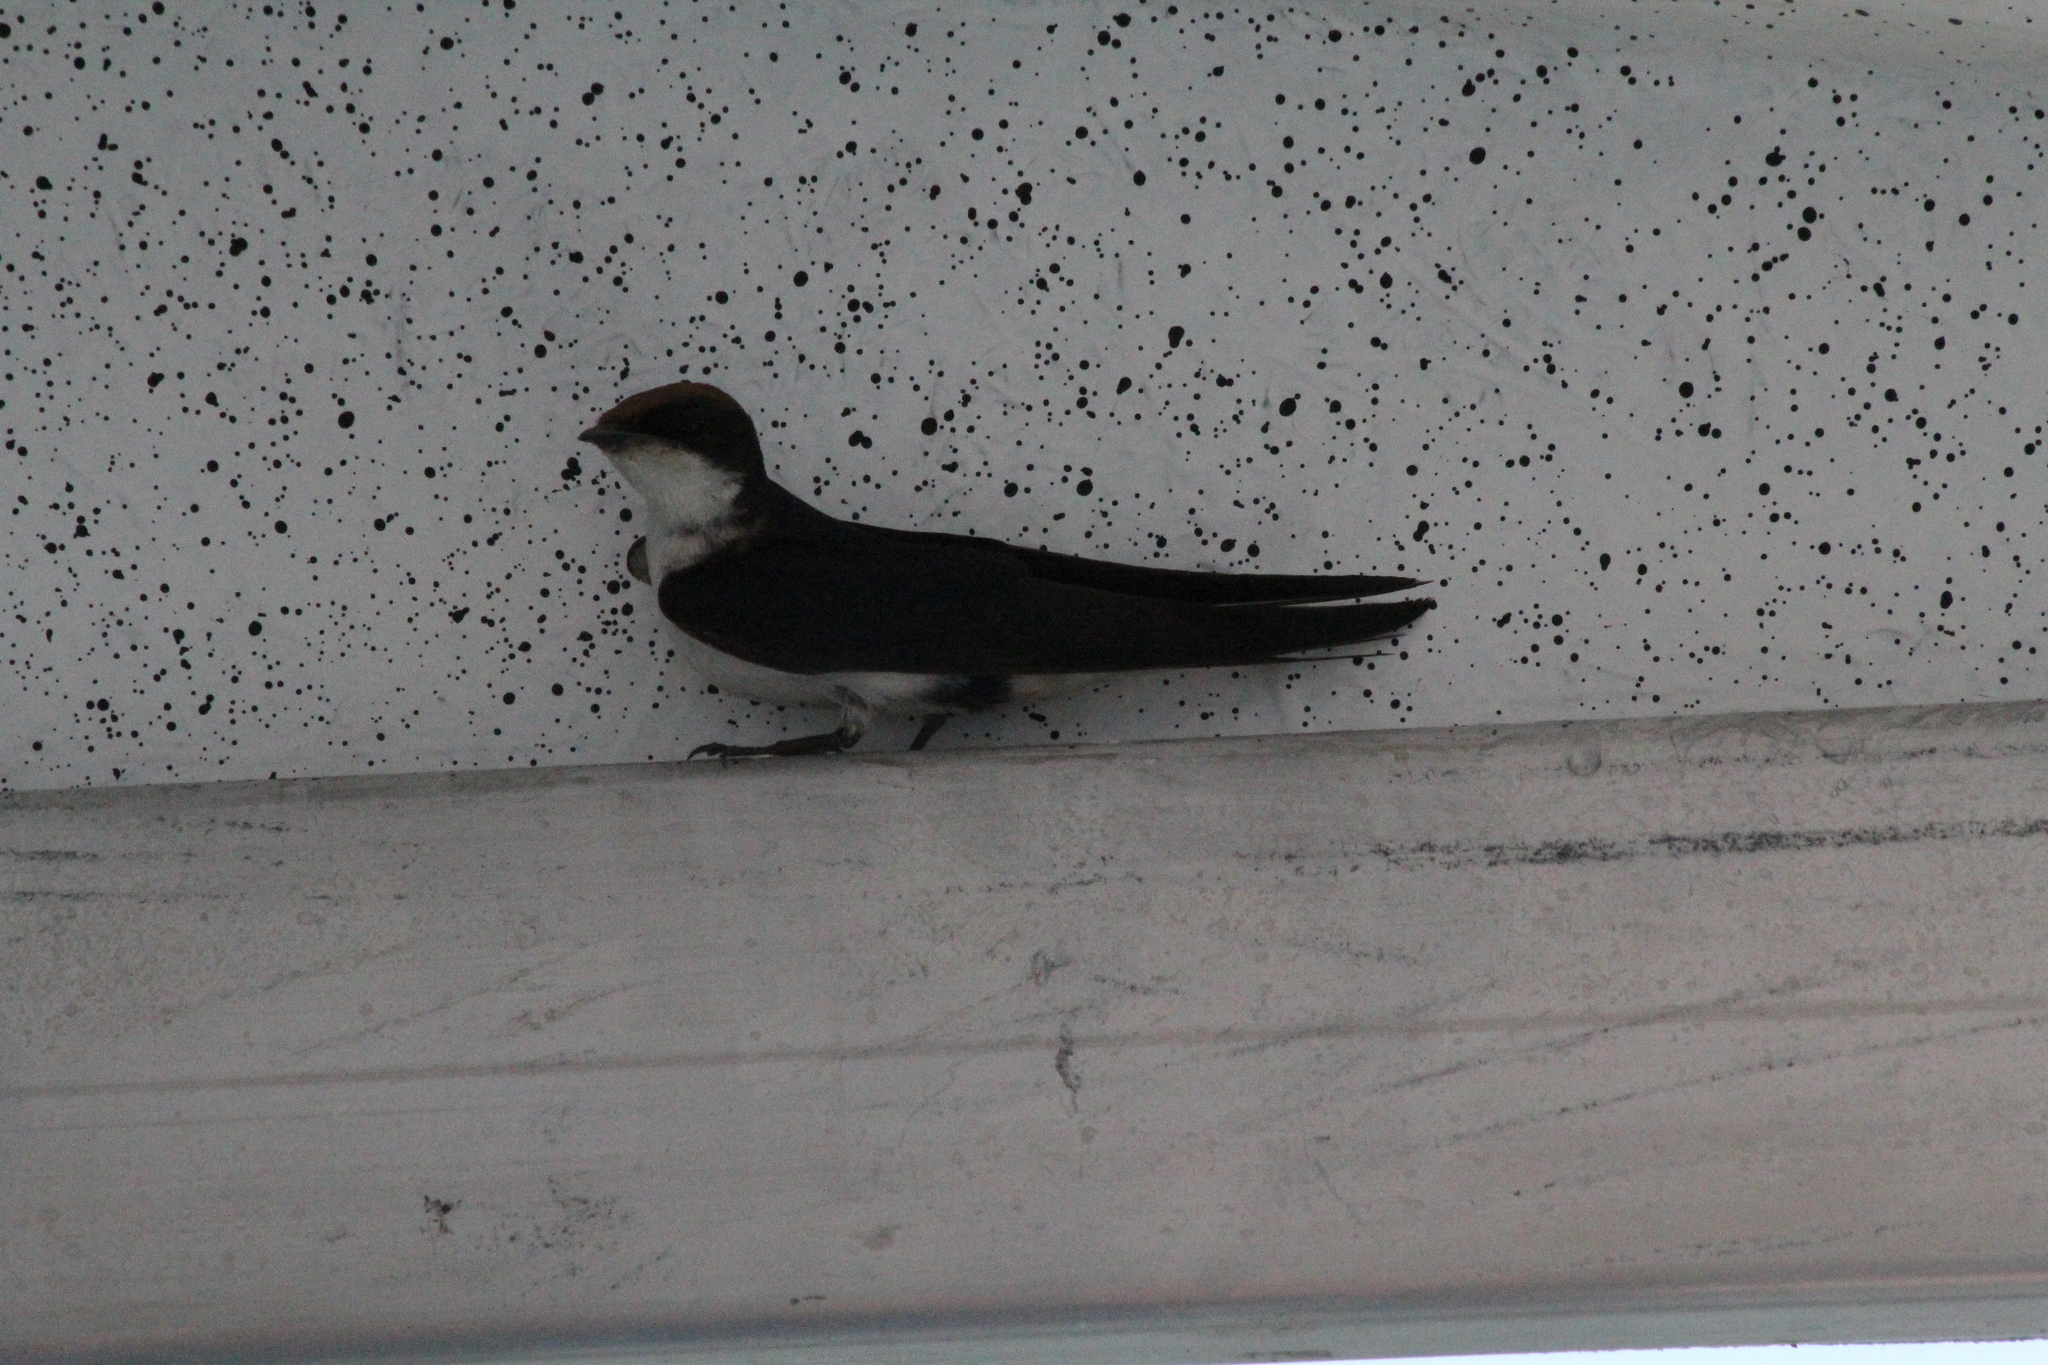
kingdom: Animalia
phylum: Chordata
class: Aves
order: Passeriformes
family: Hirundinidae
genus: Hirundo
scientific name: Hirundo smithii
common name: Wire-tailed swallow
